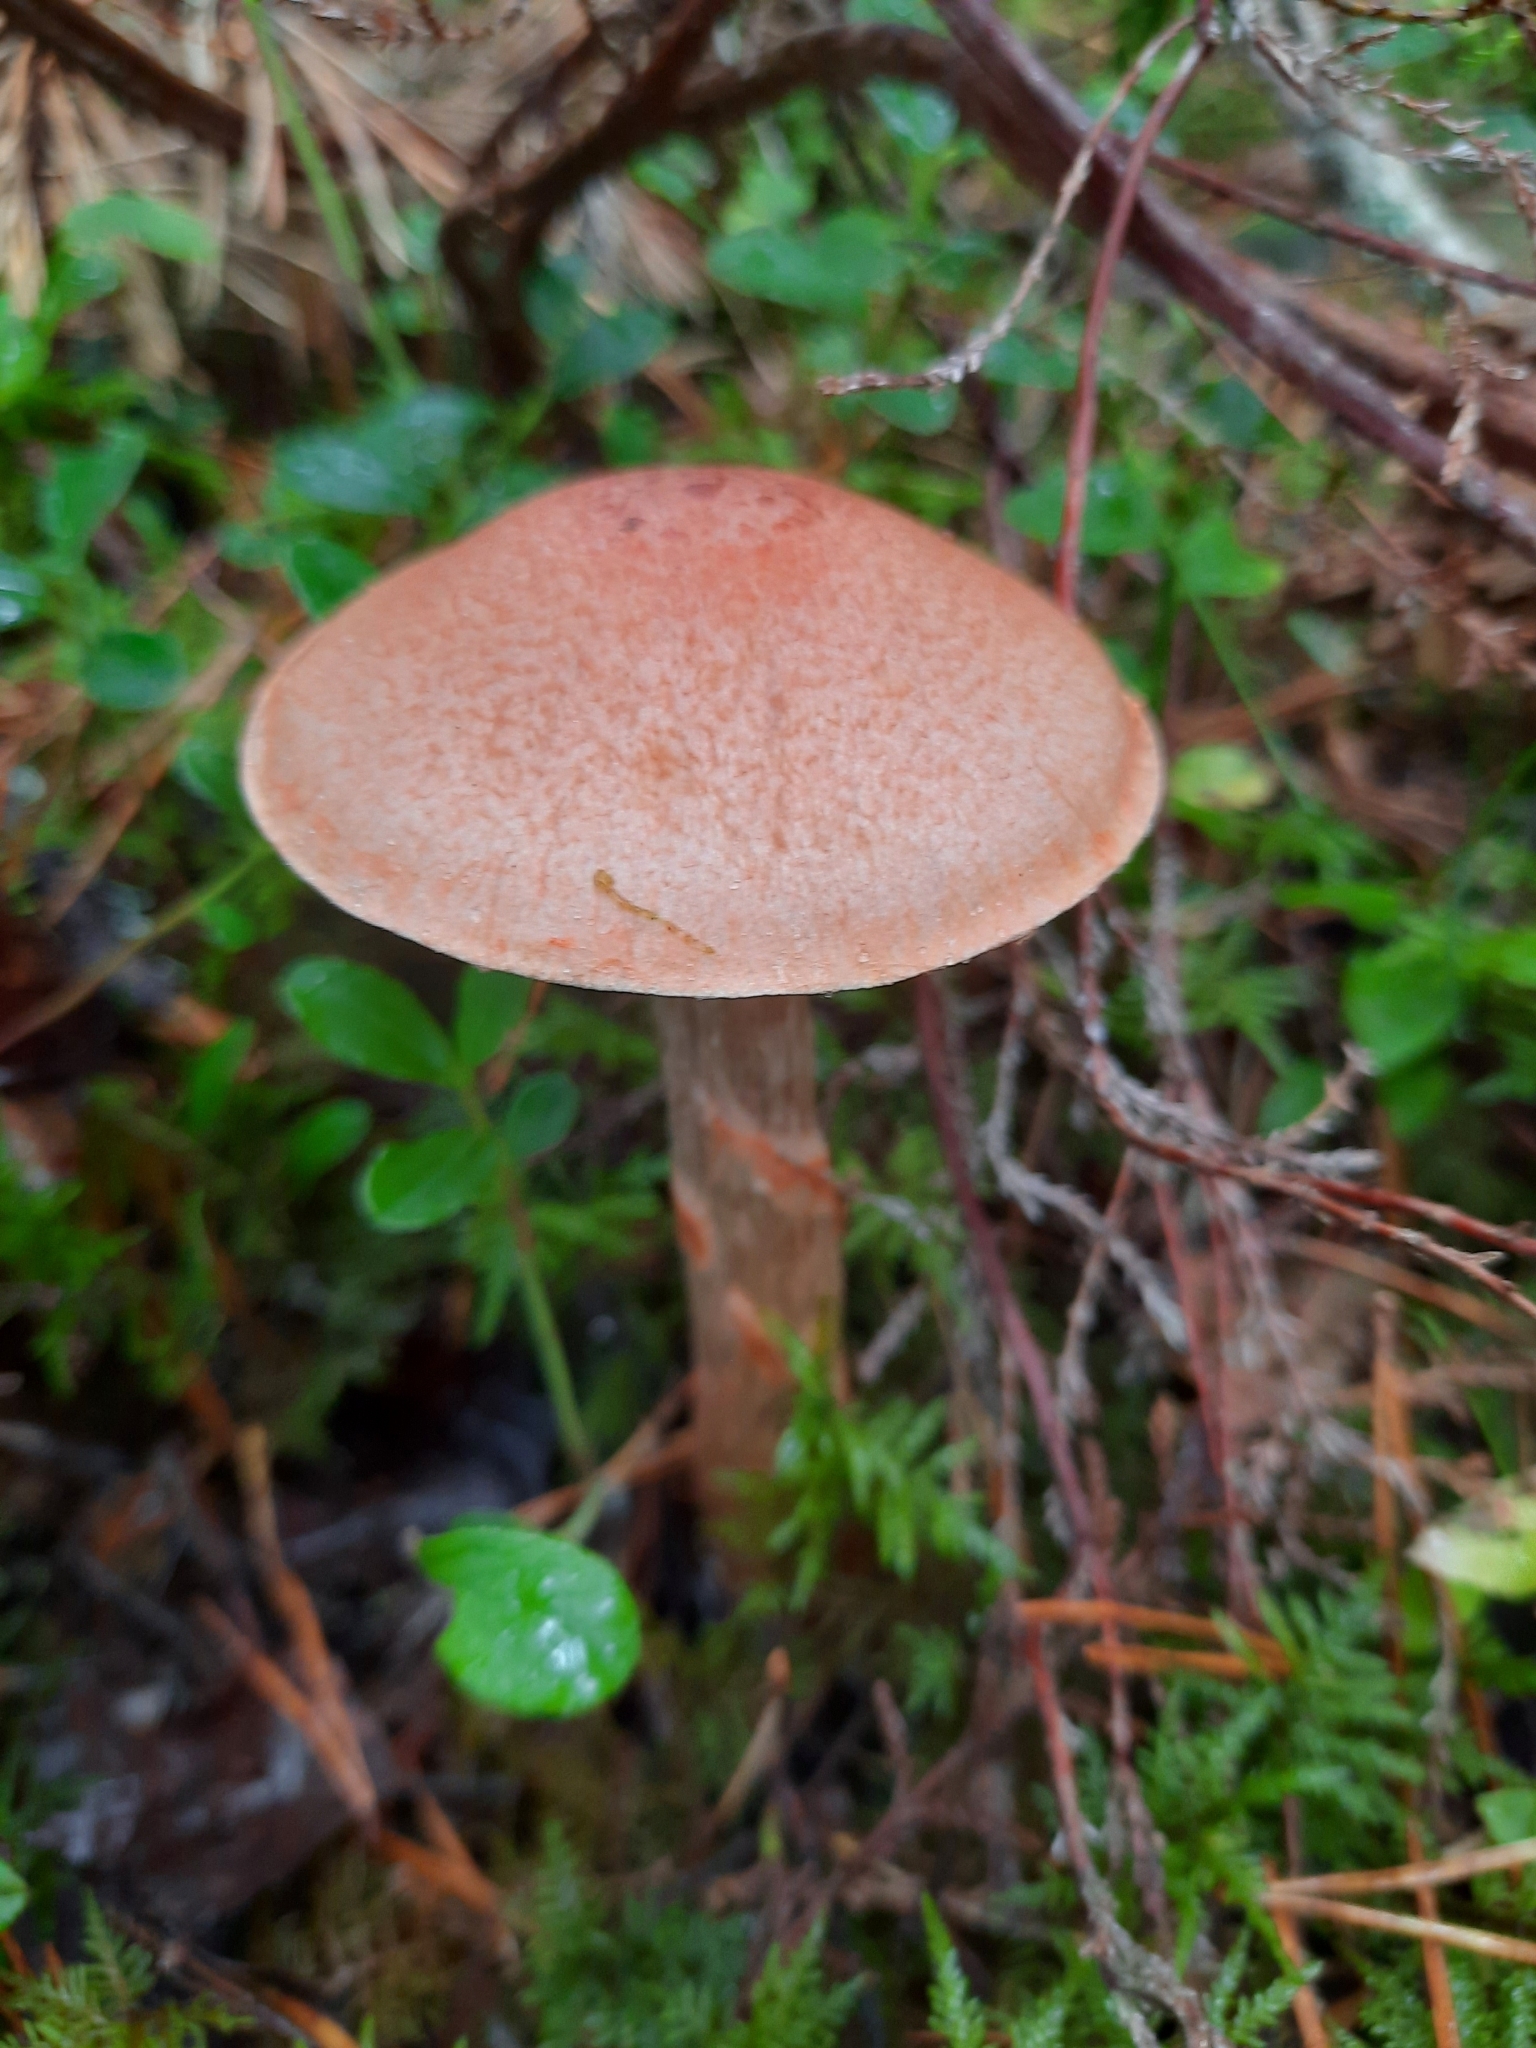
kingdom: Fungi
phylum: Basidiomycota
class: Agaricomycetes
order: Agaricales
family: Cortinariaceae
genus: Cortinarius
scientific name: Cortinarius armillatus
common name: Red banded webcap
